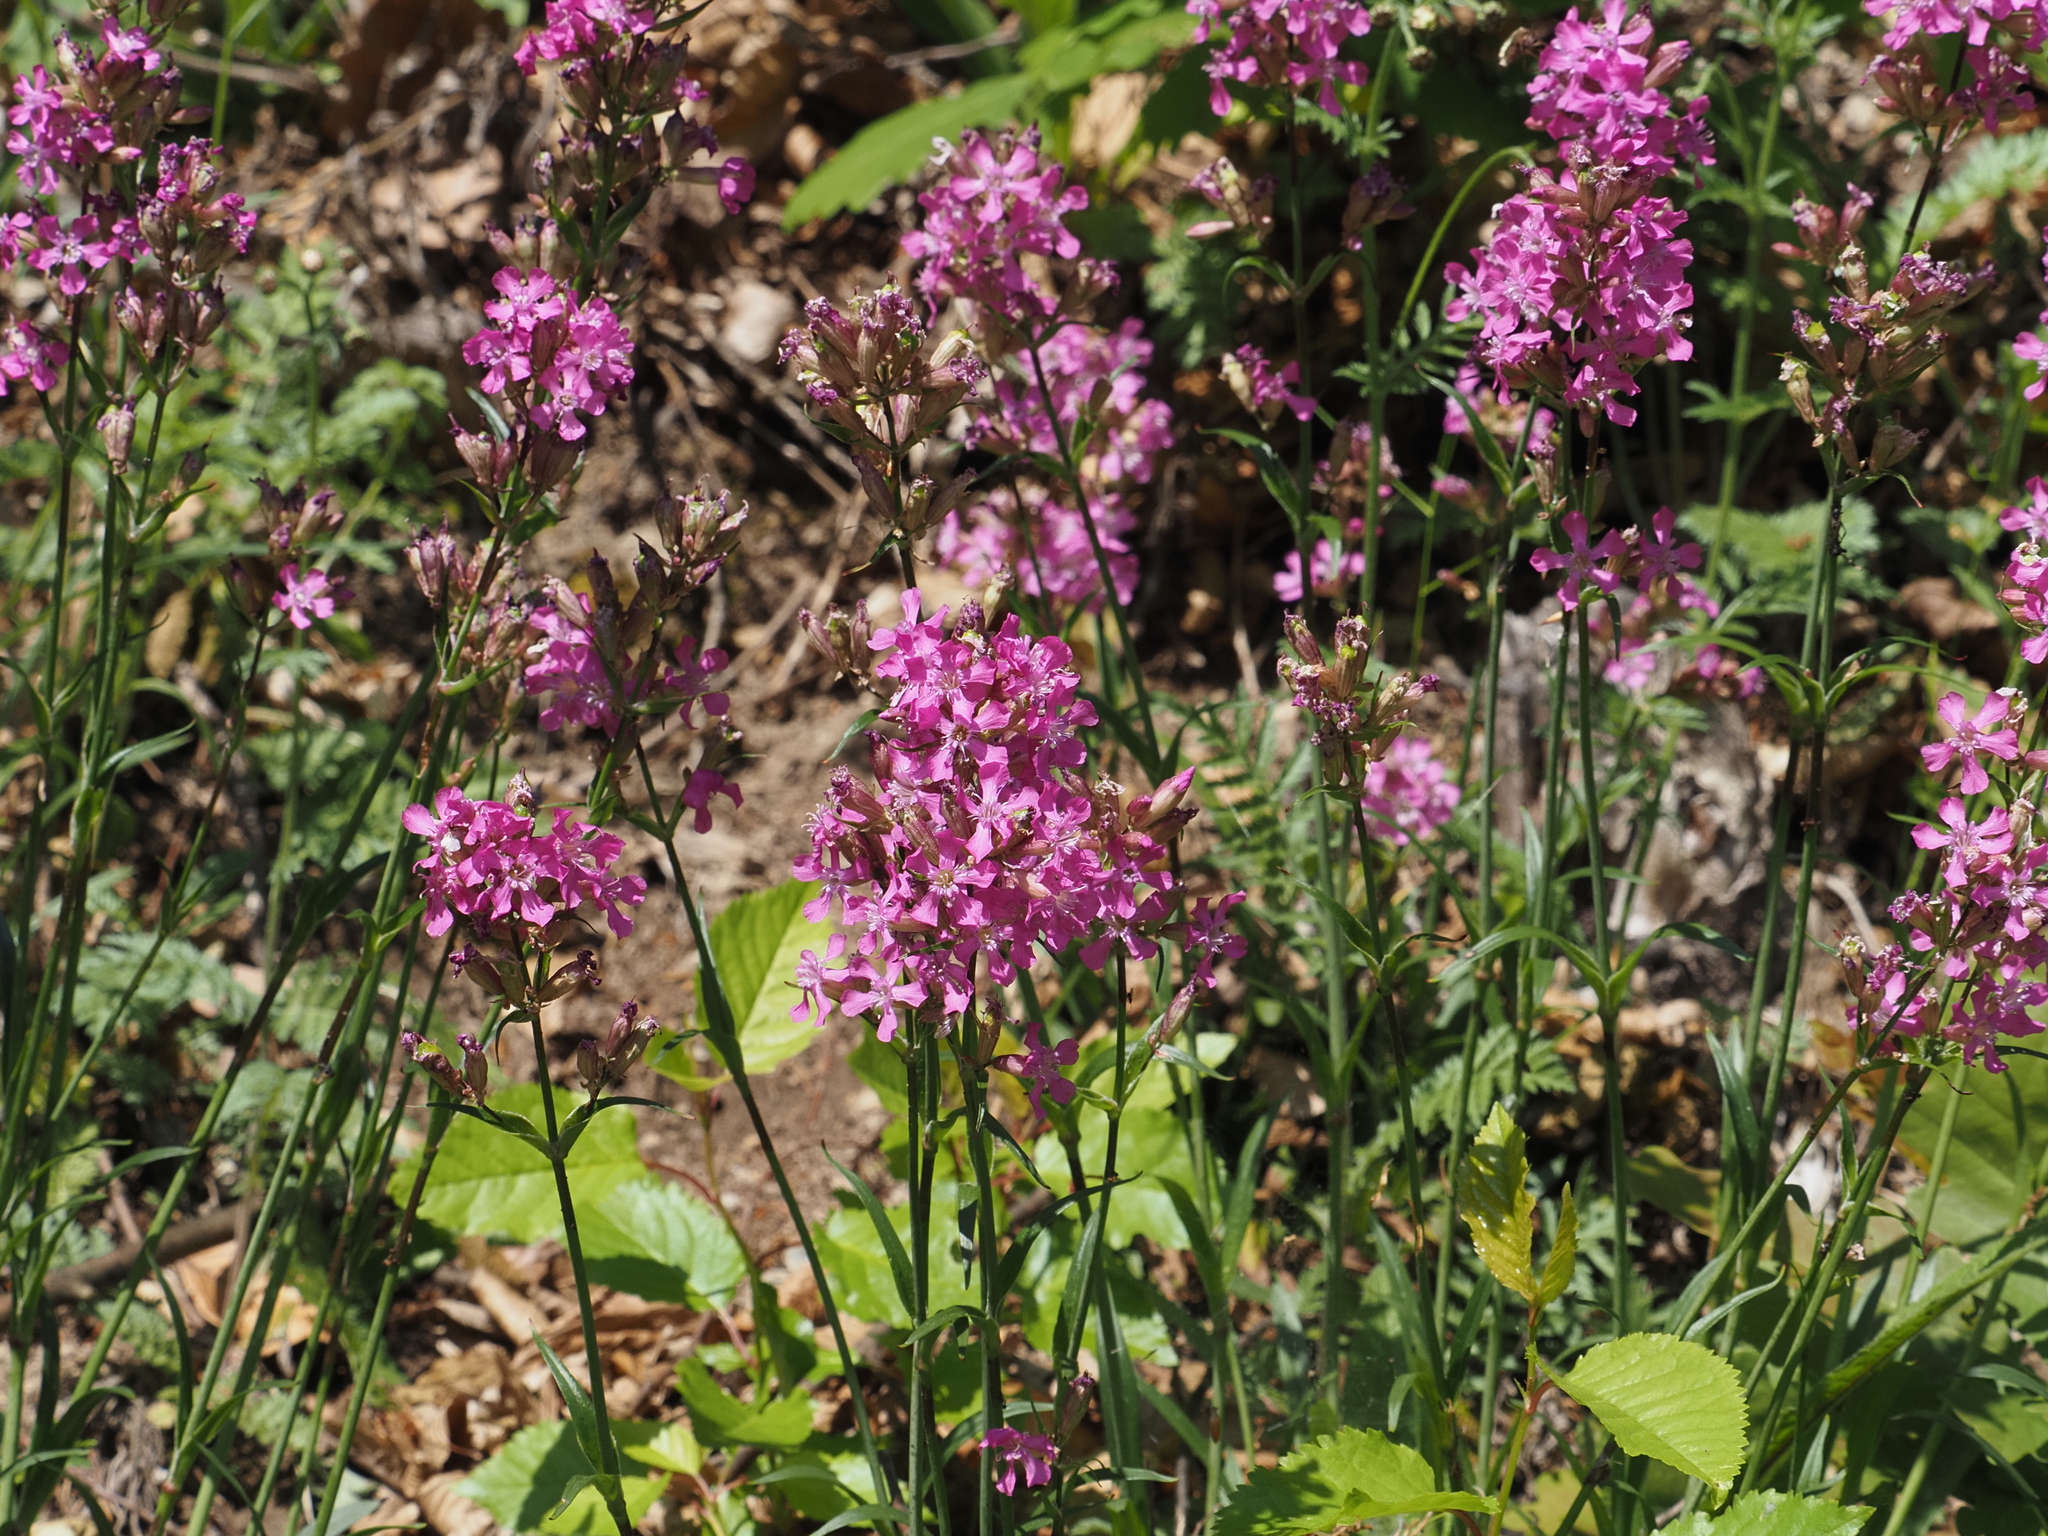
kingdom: Plantae
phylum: Tracheophyta
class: Magnoliopsida
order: Caryophyllales
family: Caryophyllaceae
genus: Viscaria
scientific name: Viscaria vulgaris
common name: Clammy campion
